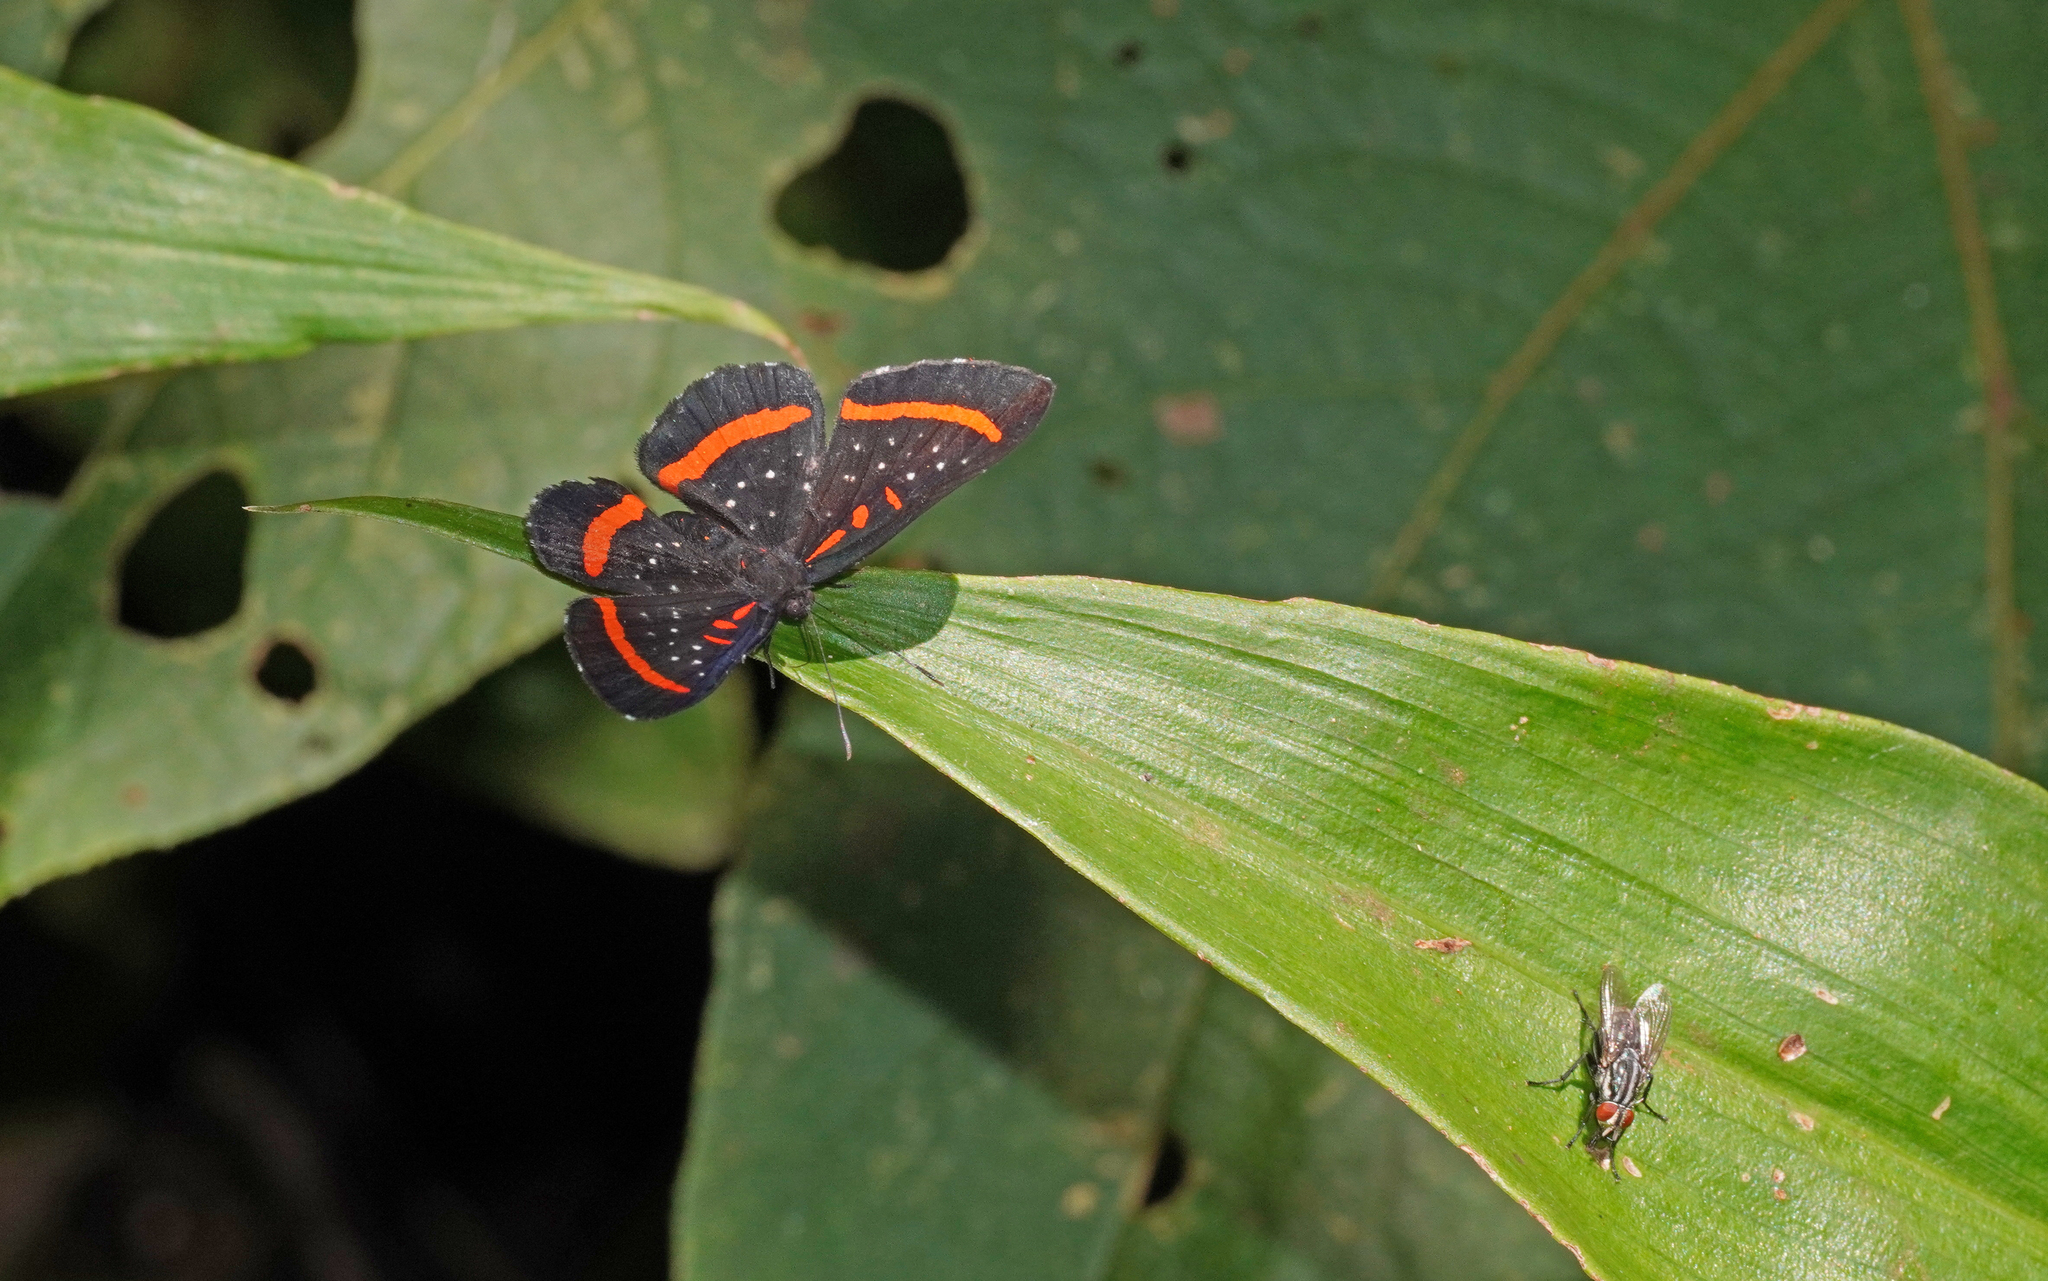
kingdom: Animalia
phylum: Arthropoda
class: Insecta
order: Lepidoptera
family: Riodinidae
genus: Amarynthis
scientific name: Amarynthis meneria
